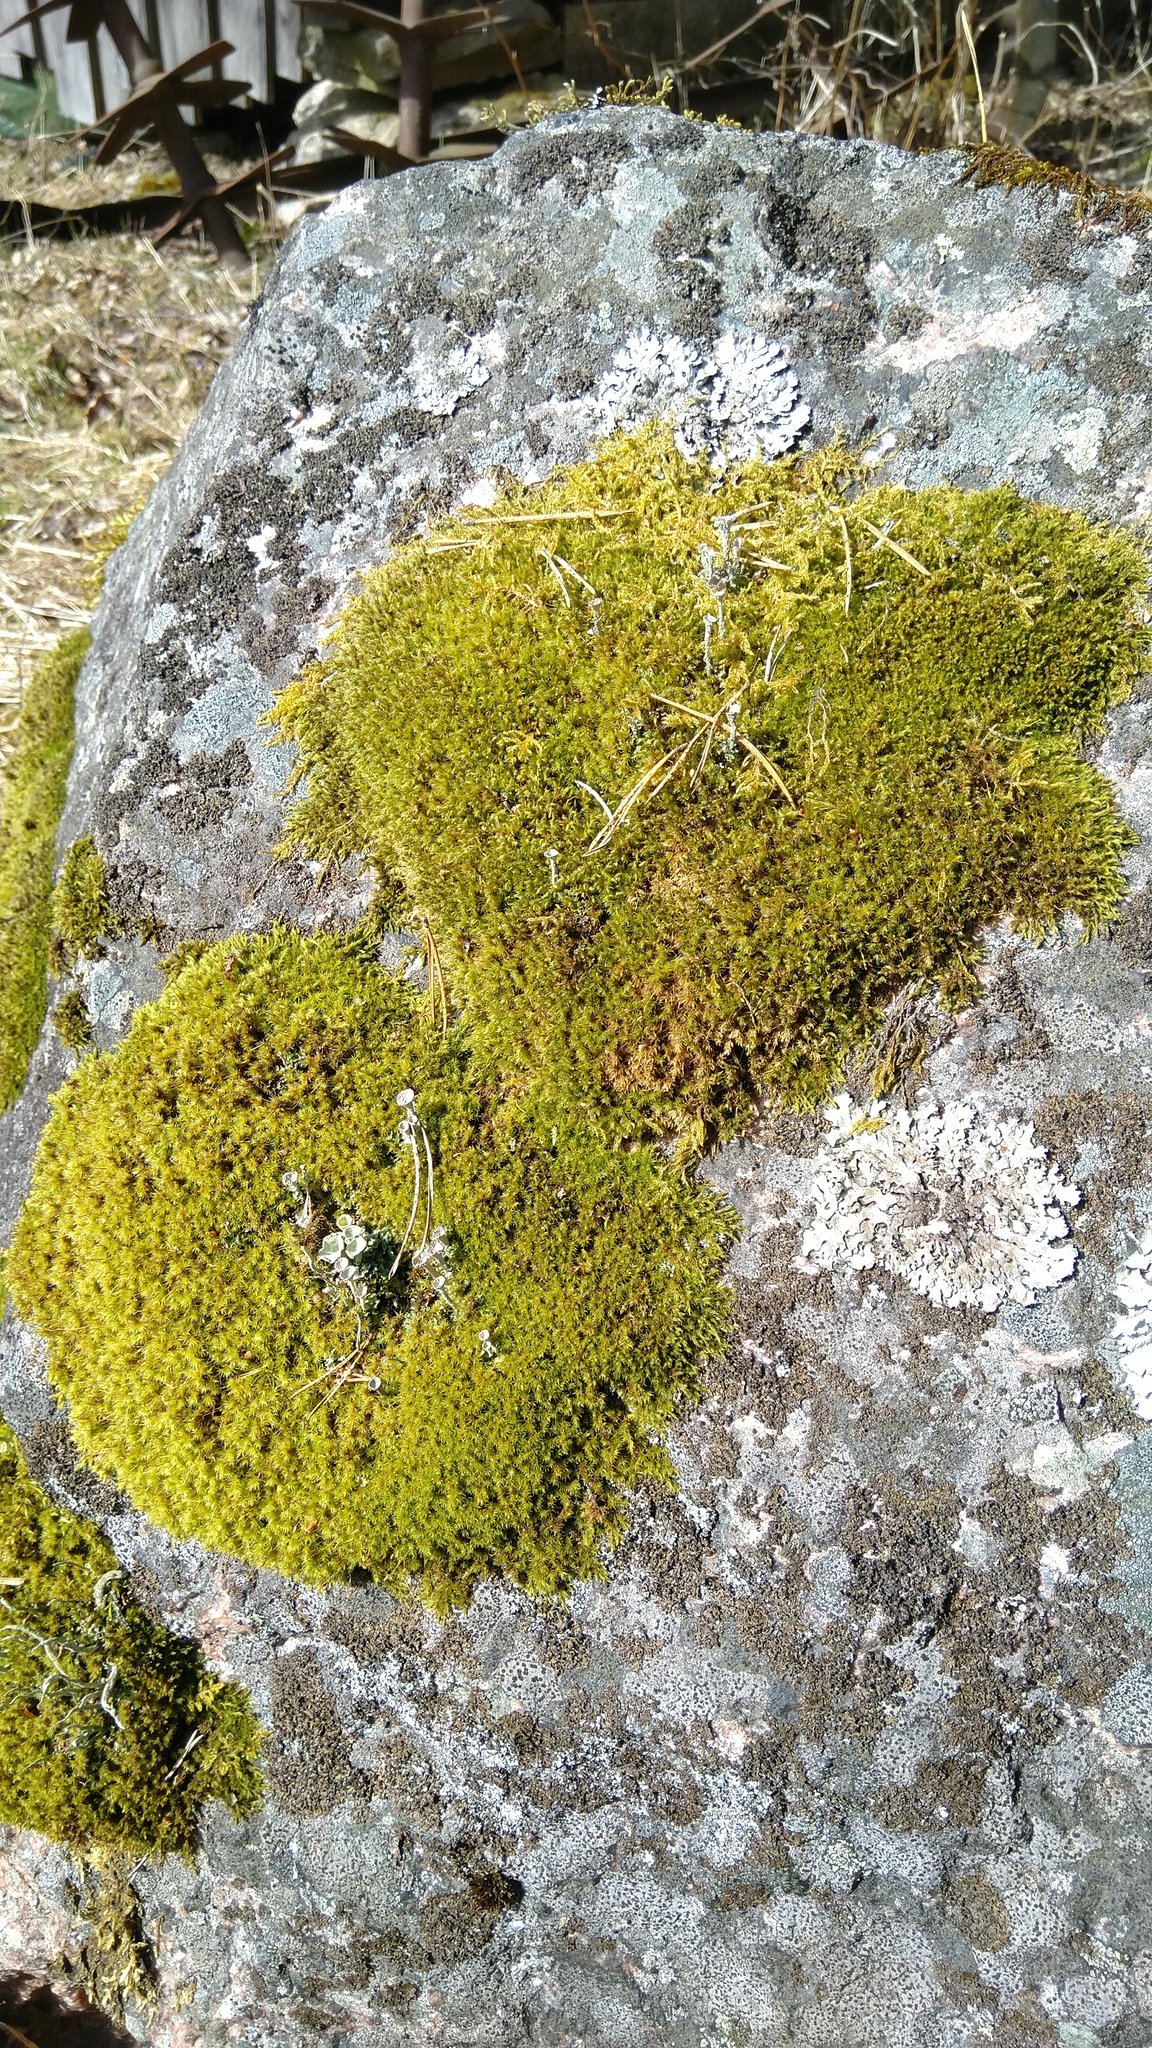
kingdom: Plantae
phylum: Bryophyta
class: Bryopsida
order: Grimmiales
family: Grimmiaceae
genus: Dilutineuron
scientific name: Dilutineuron fasciculare
